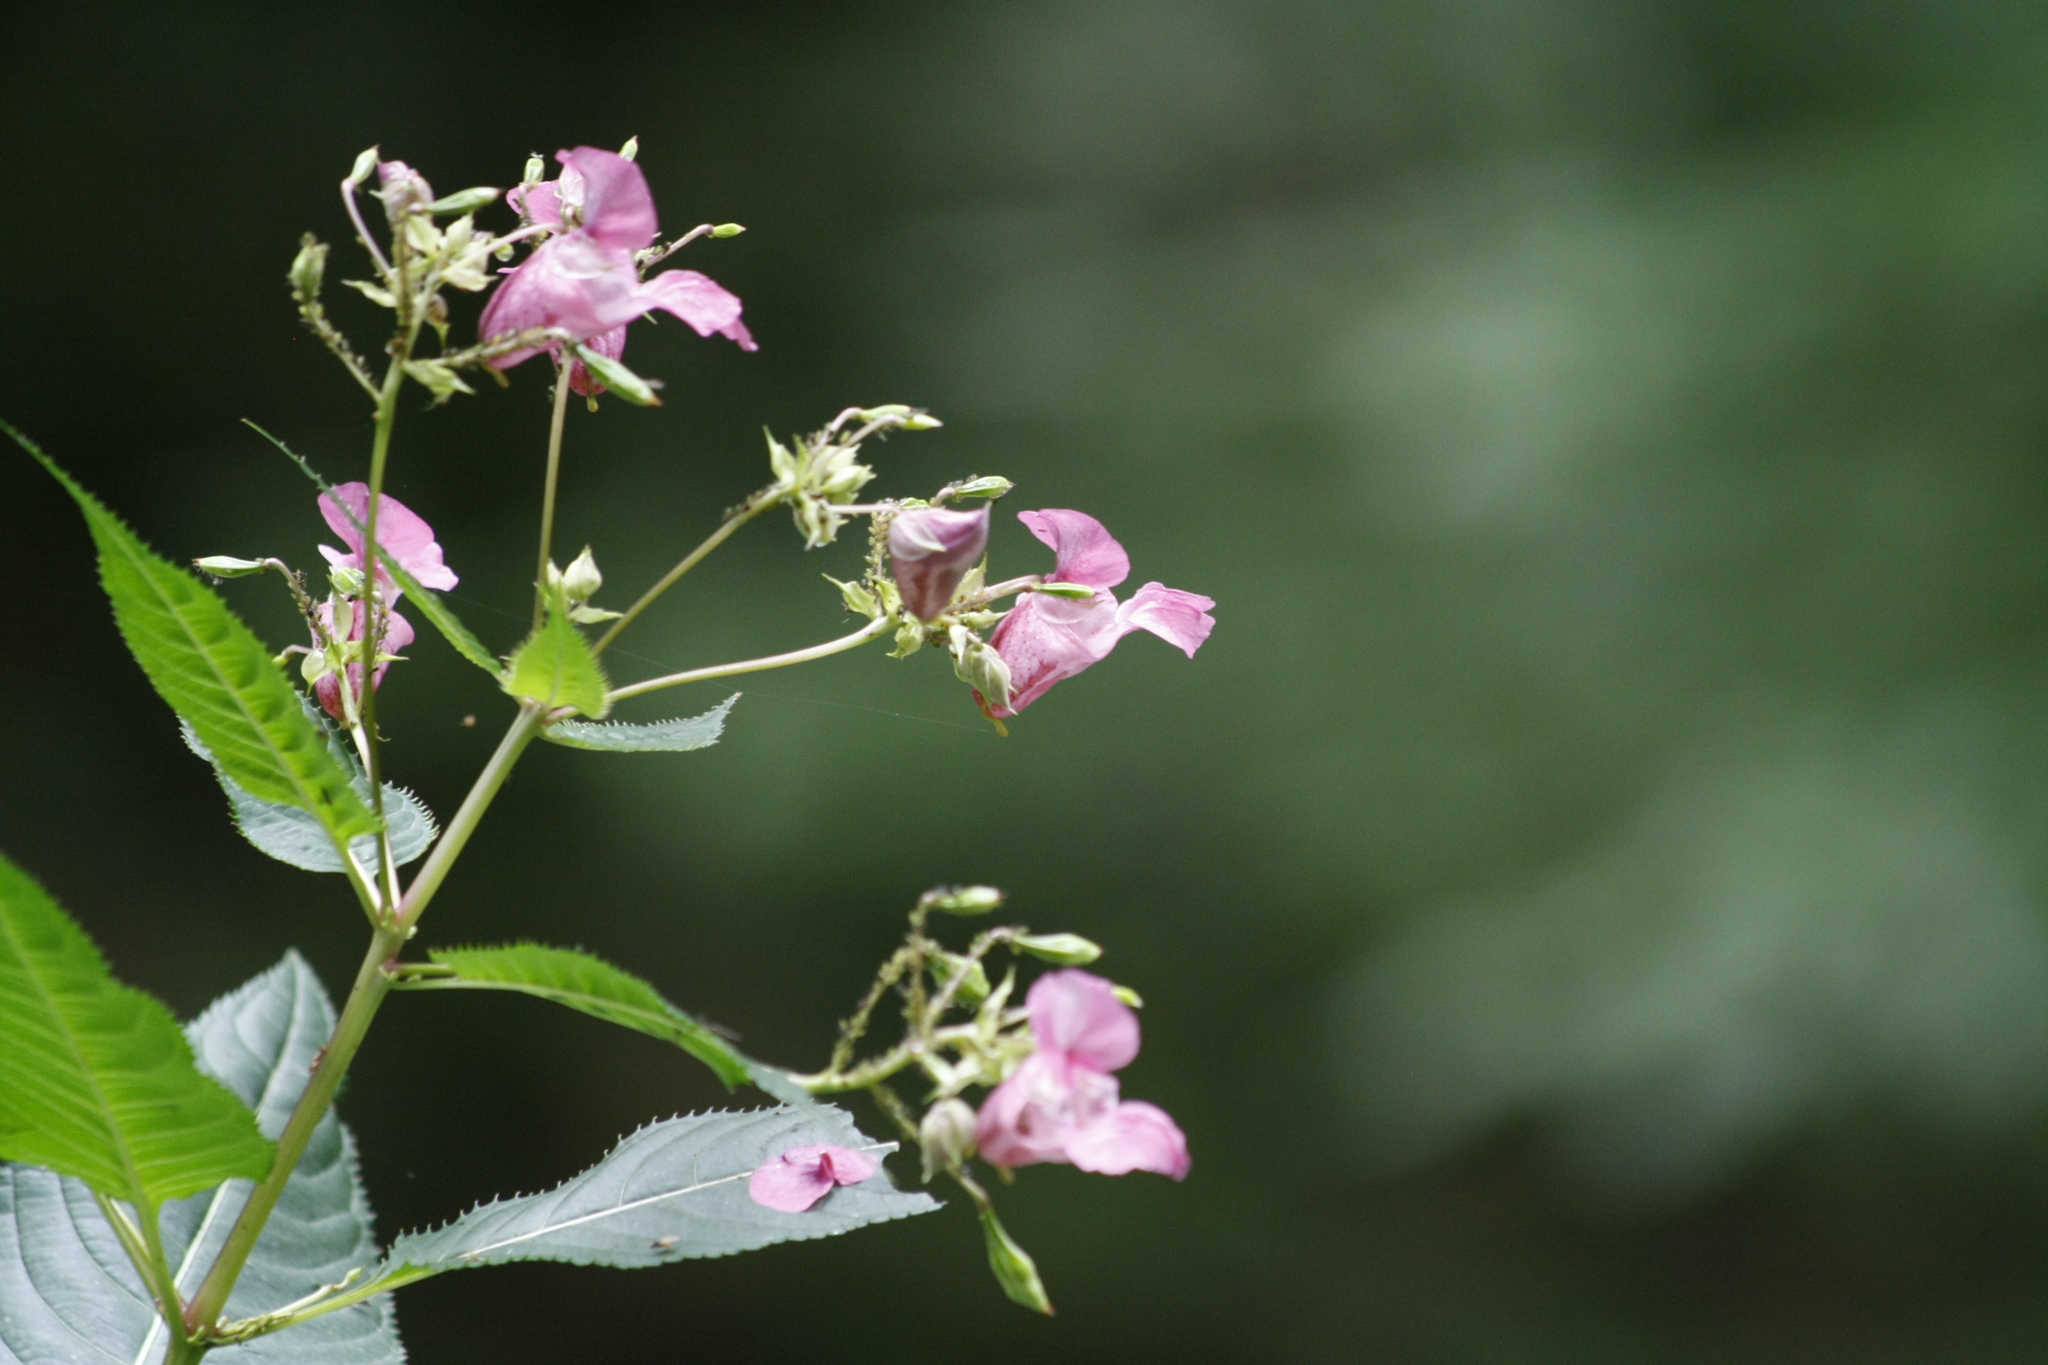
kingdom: Plantae
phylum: Tracheophyta
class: Magnoliopsida
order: Ericales
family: Balsaminaceae
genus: Impatiens
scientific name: Impatiens glandulifera
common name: Himalayan balsam
